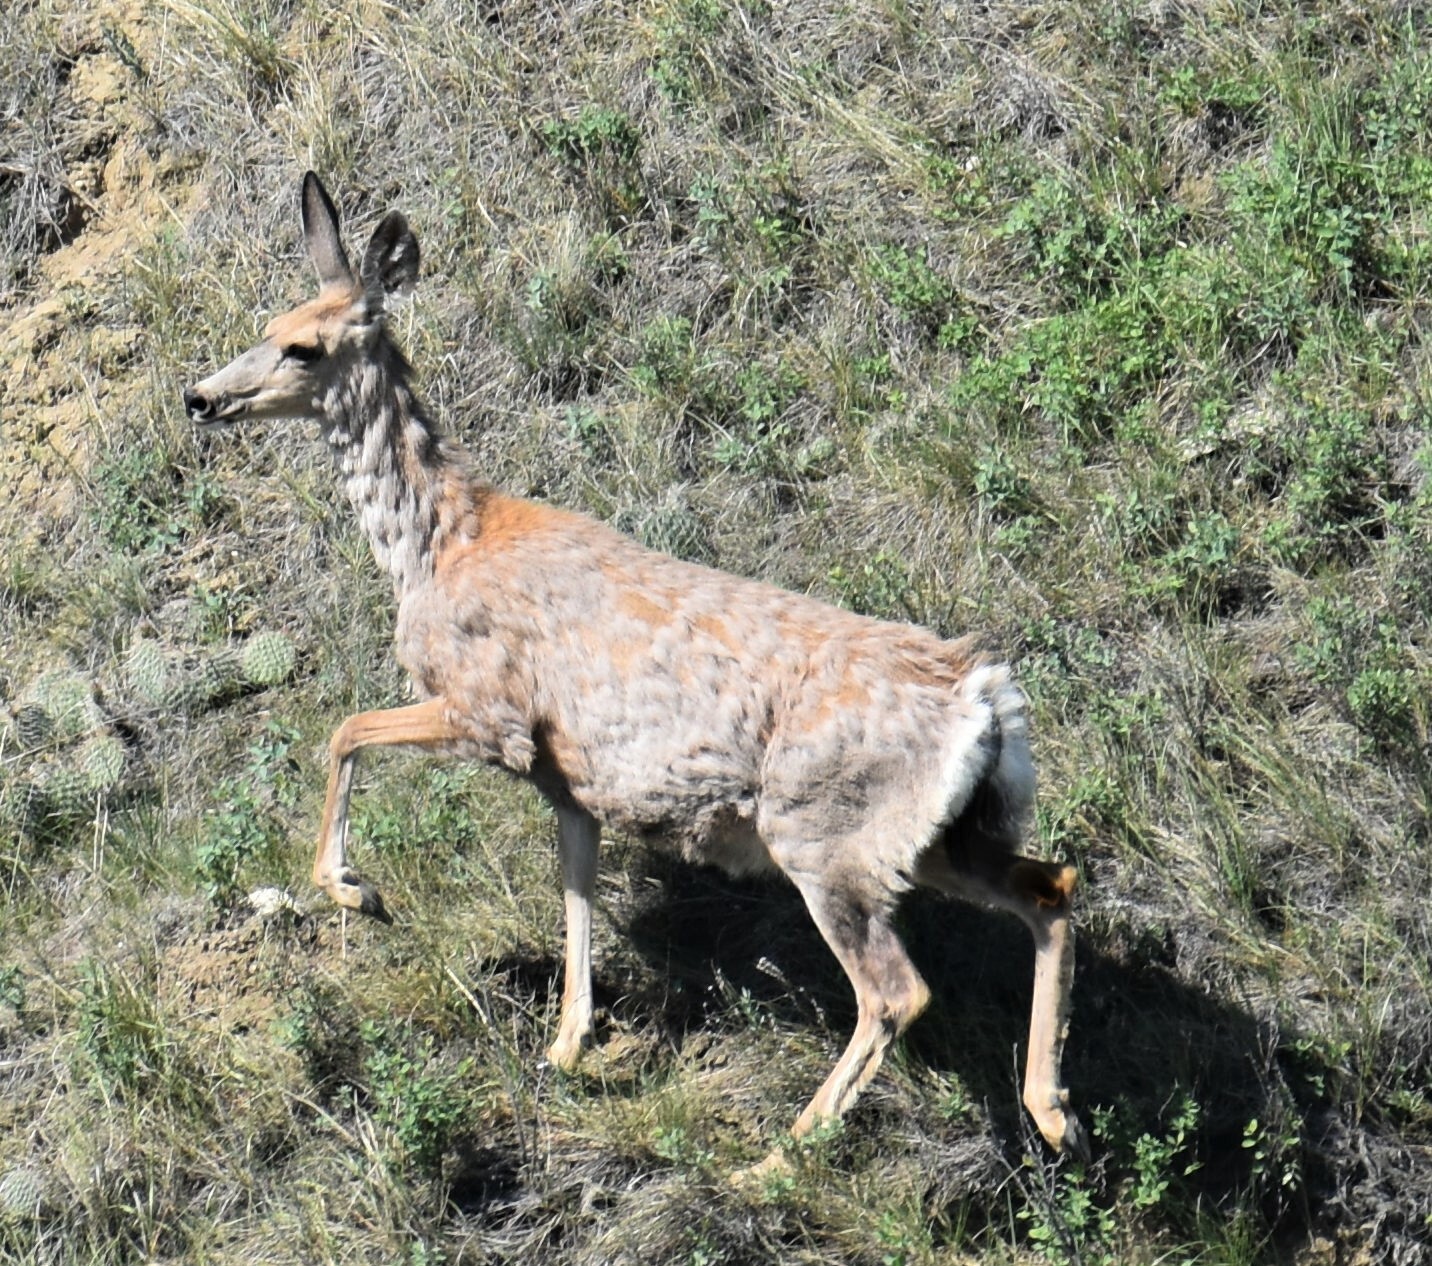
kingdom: Animalia
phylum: Chordata
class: Mammalia
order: Artiodactyla
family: Cervidae
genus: Odocoileus
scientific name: Odocoileus hemionus
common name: Mule deer
